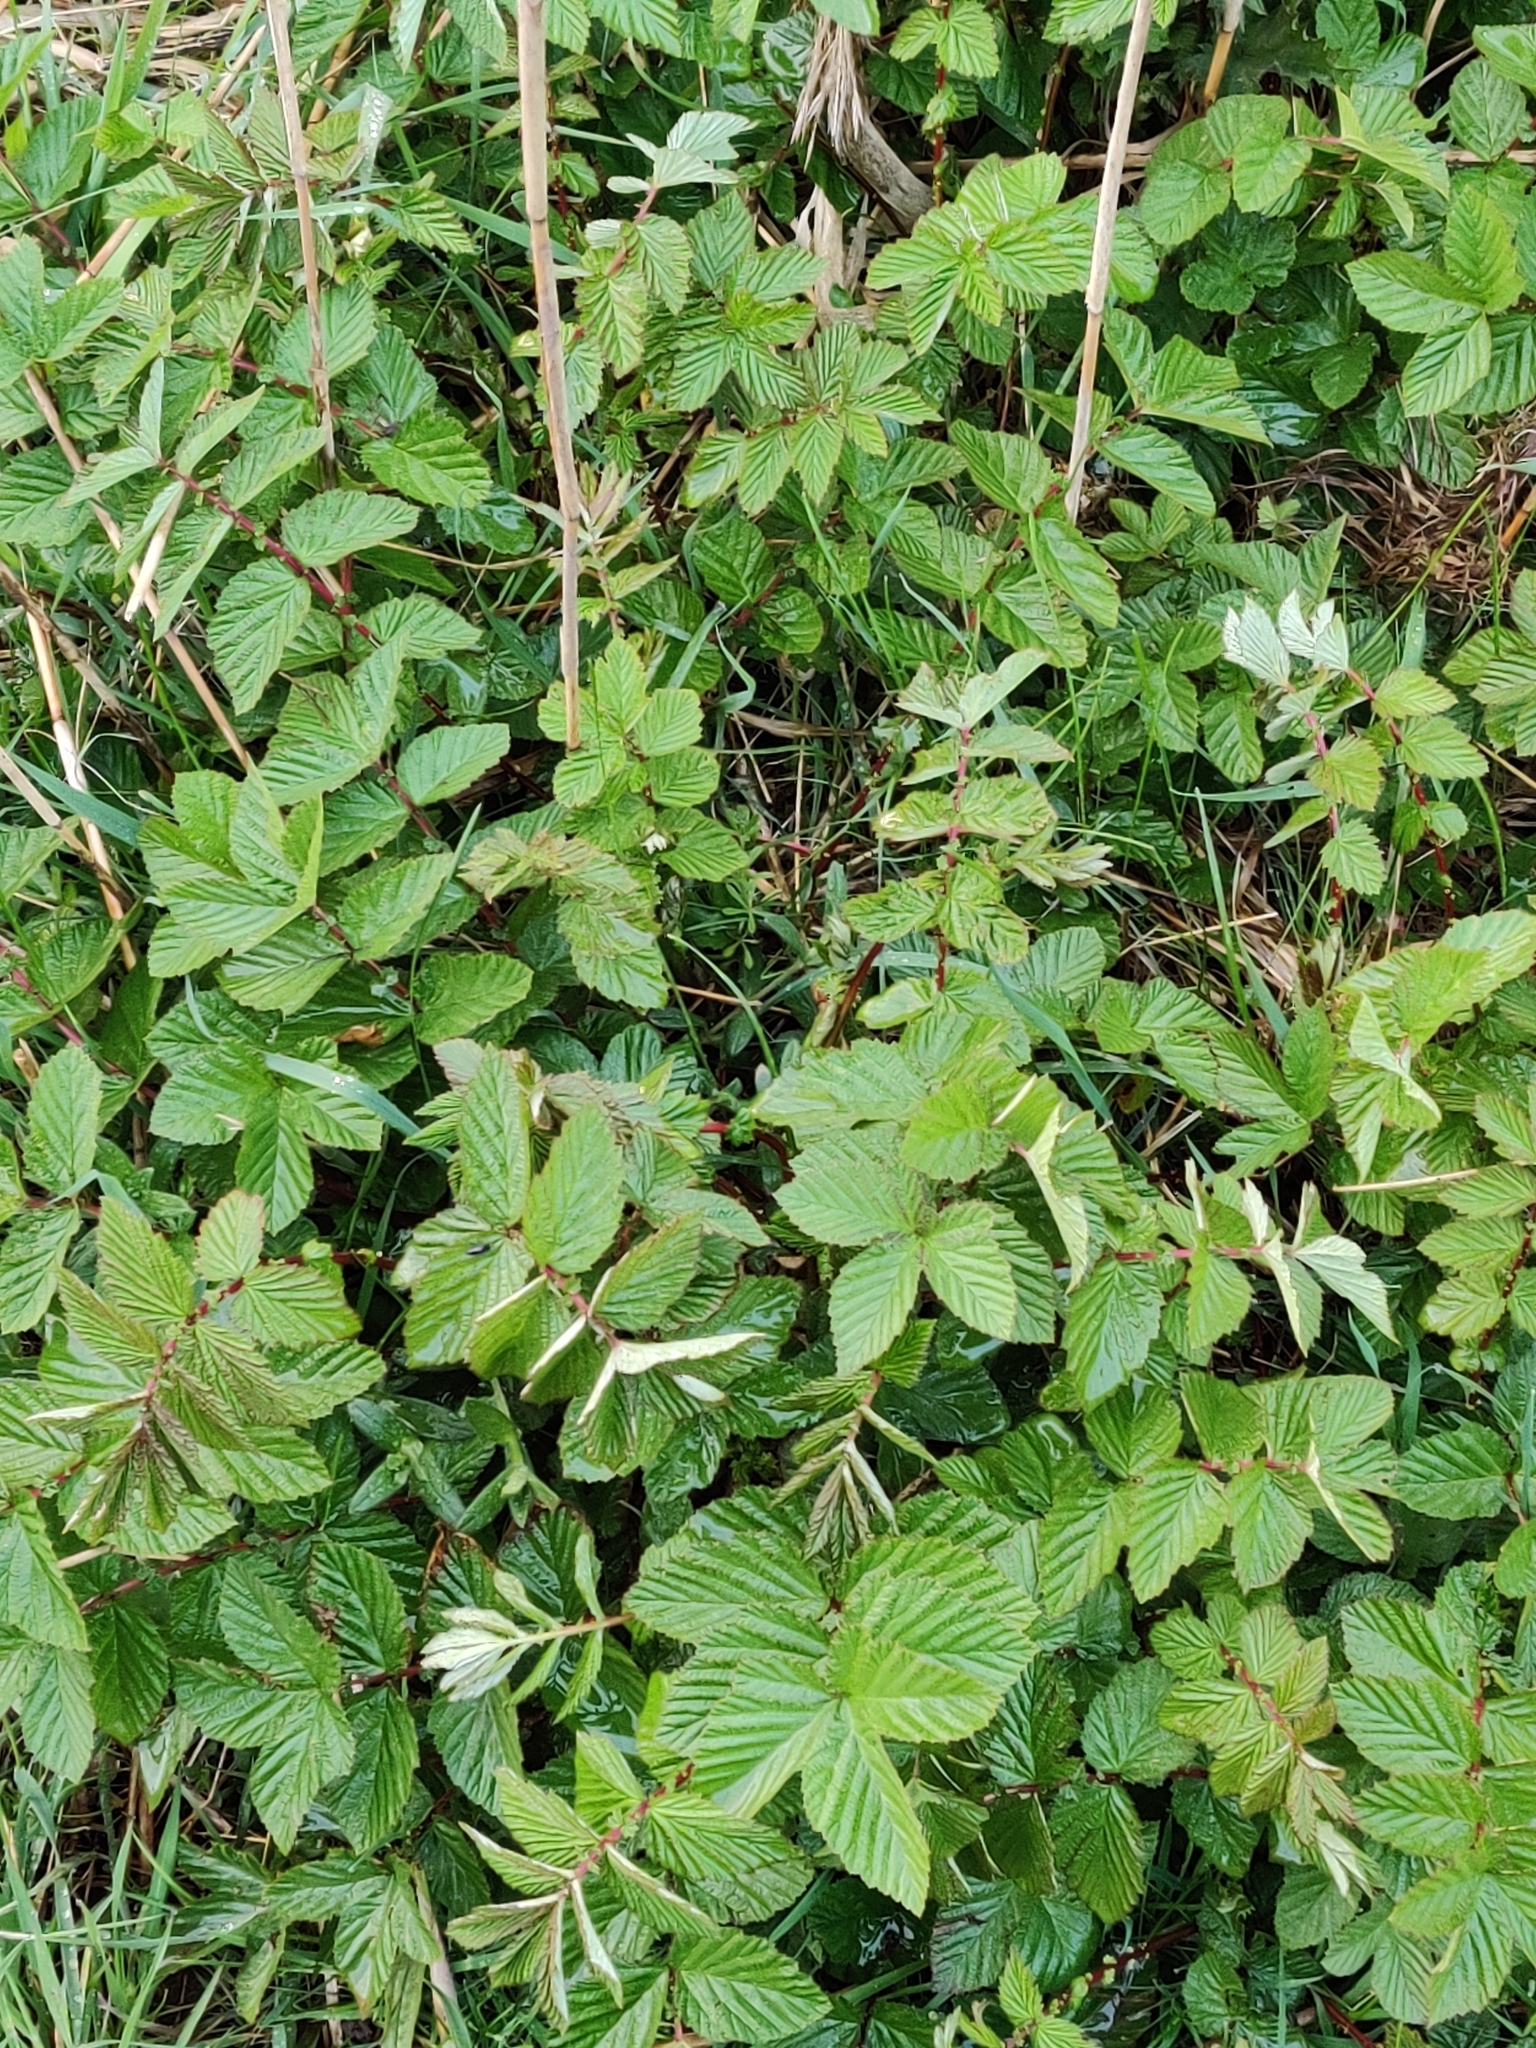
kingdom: Plantae
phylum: Tracheophyta
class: Magnoliopsida
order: Rosales
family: Rosaceae
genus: Filipendula
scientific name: Filipendula ulmaria
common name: Meadowsweet
